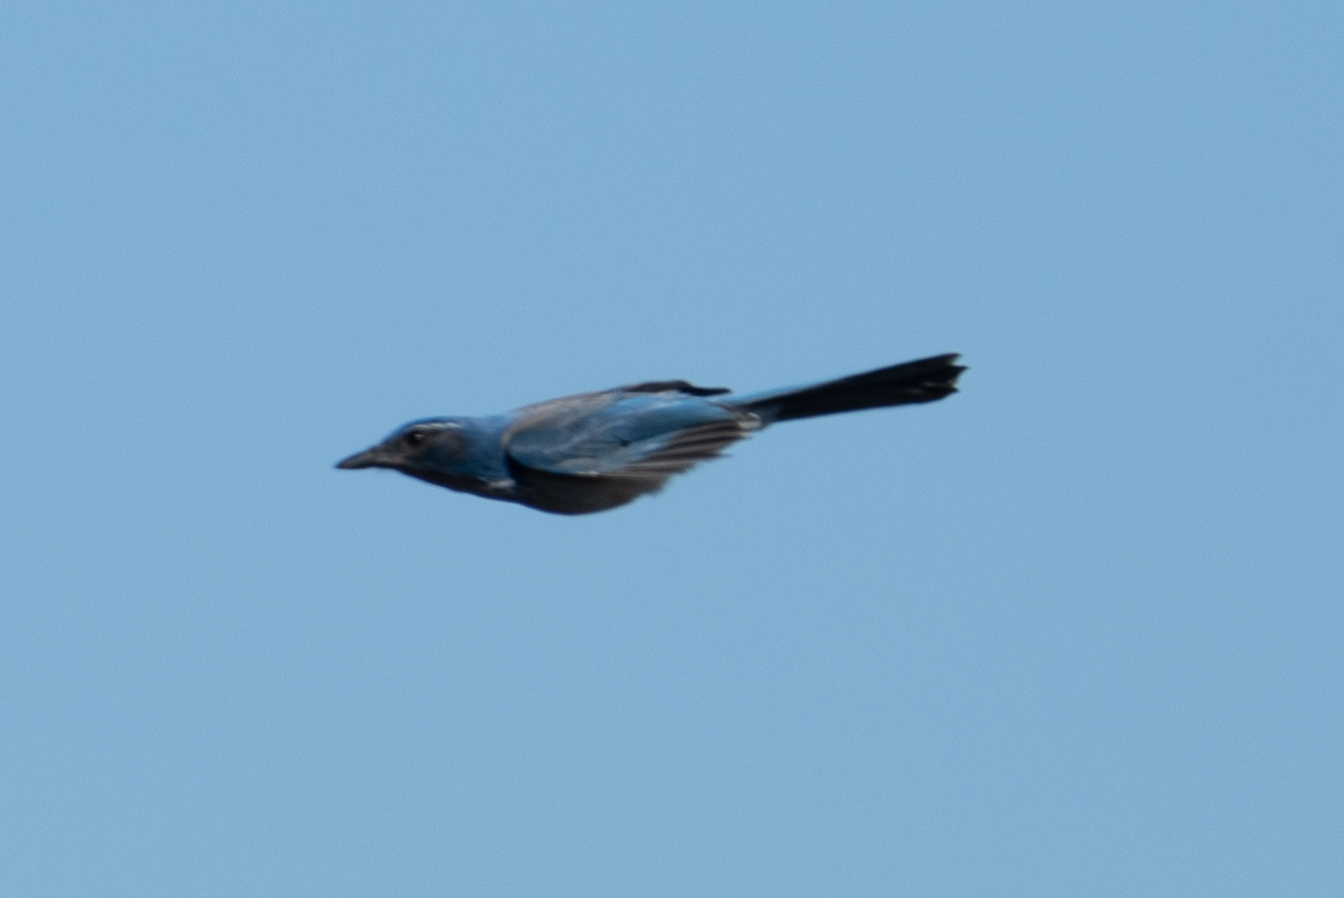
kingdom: Animalia
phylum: Chordata
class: Aves
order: Passeriformes
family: Corvidae
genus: Aphelocoma
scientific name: Aphelocoma californica
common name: California scrub-jay
